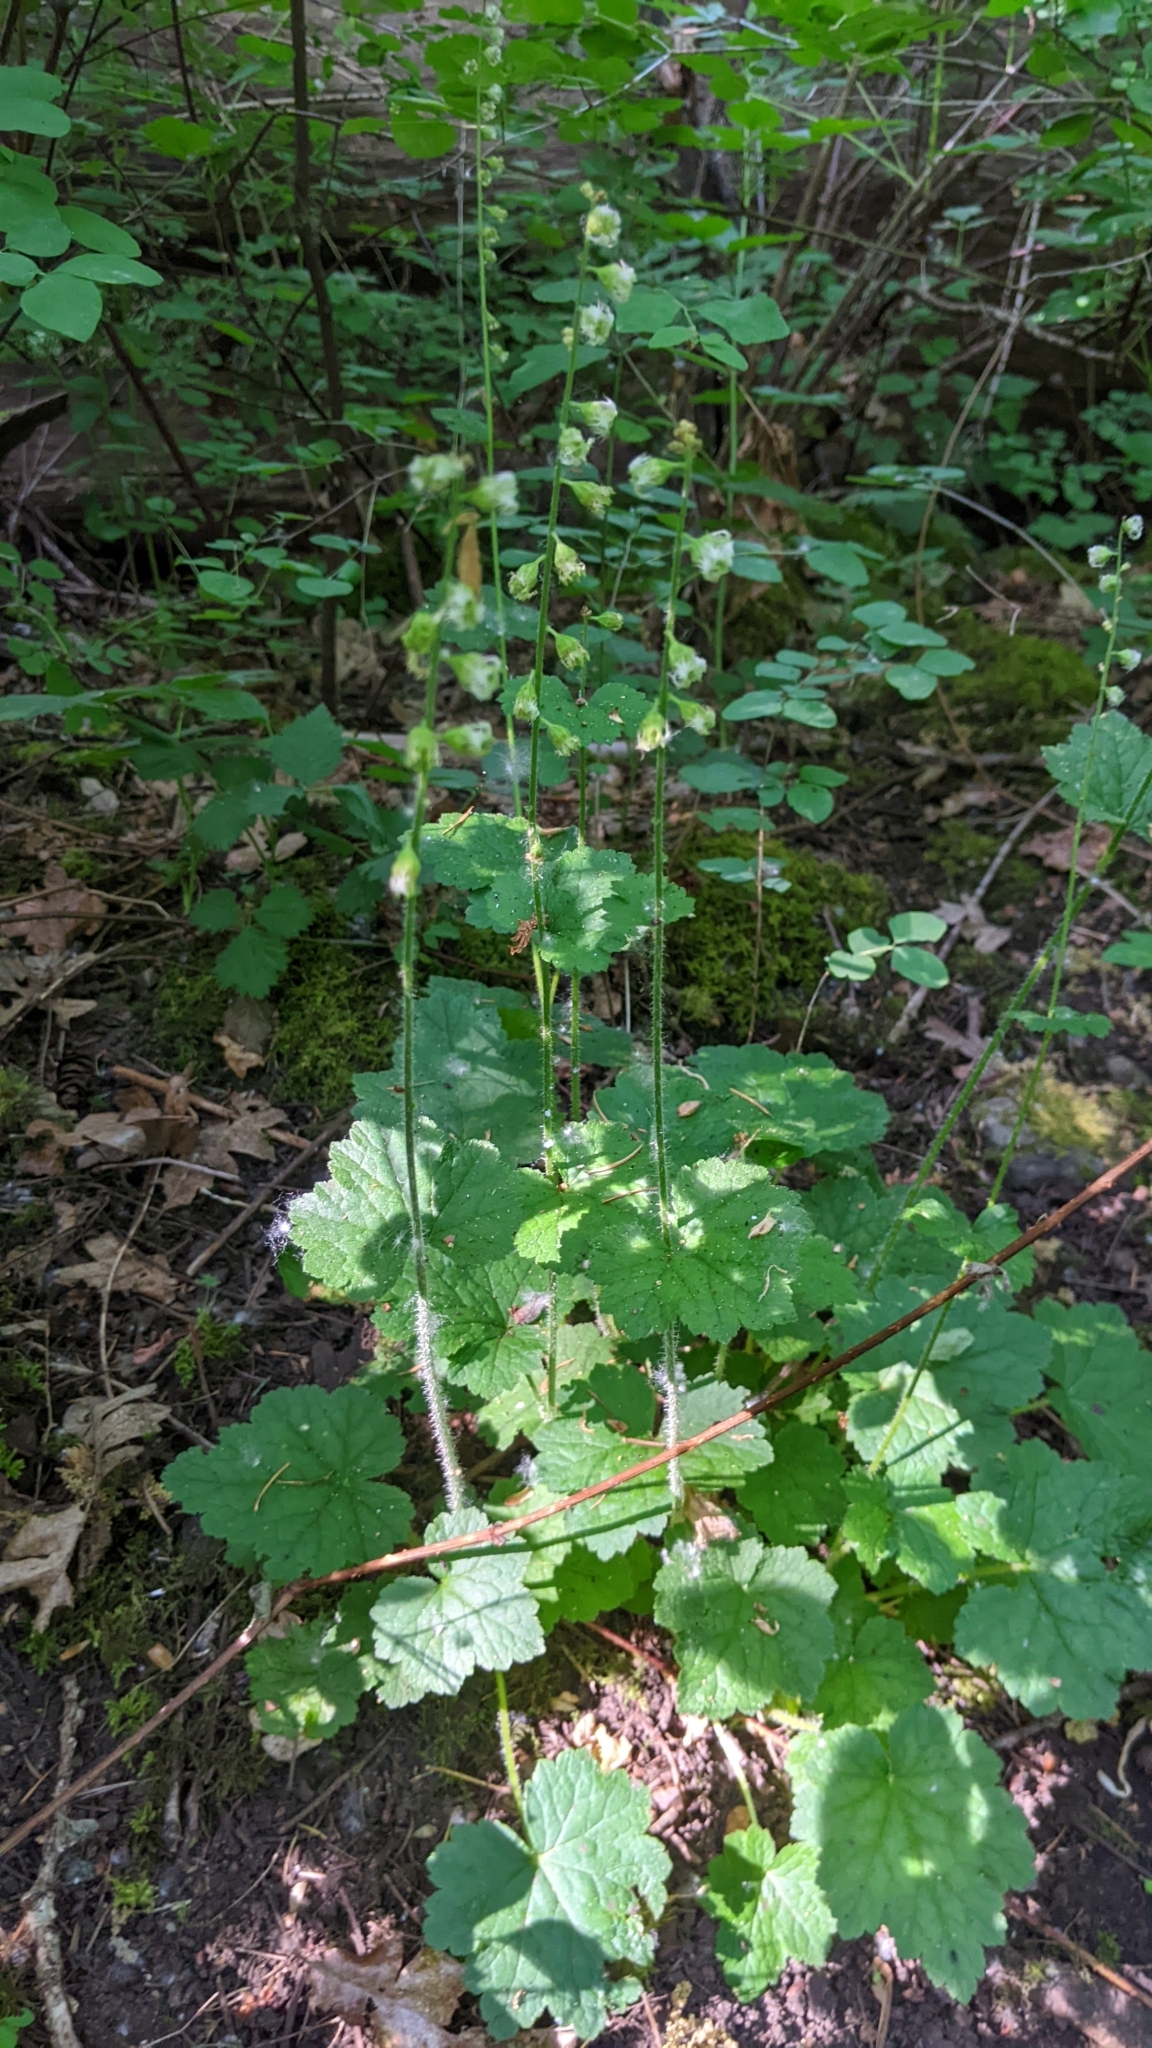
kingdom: Plantae
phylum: Tracheophyta
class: Magnoliopsida
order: Saxifragales
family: Saxifragaceae
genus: Tellima
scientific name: Tellima grandiflora
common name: Fringecups
